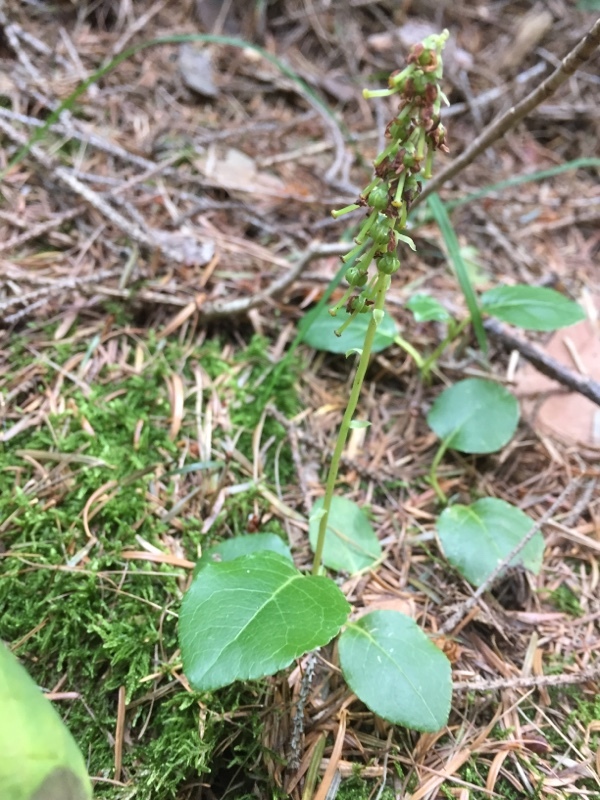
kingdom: Plantae
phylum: Tracheophyta
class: Magnoliopsida
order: Ericales
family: Ericaceae
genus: Orthilia
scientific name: Orthilia secunda
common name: One-sided orthilia
